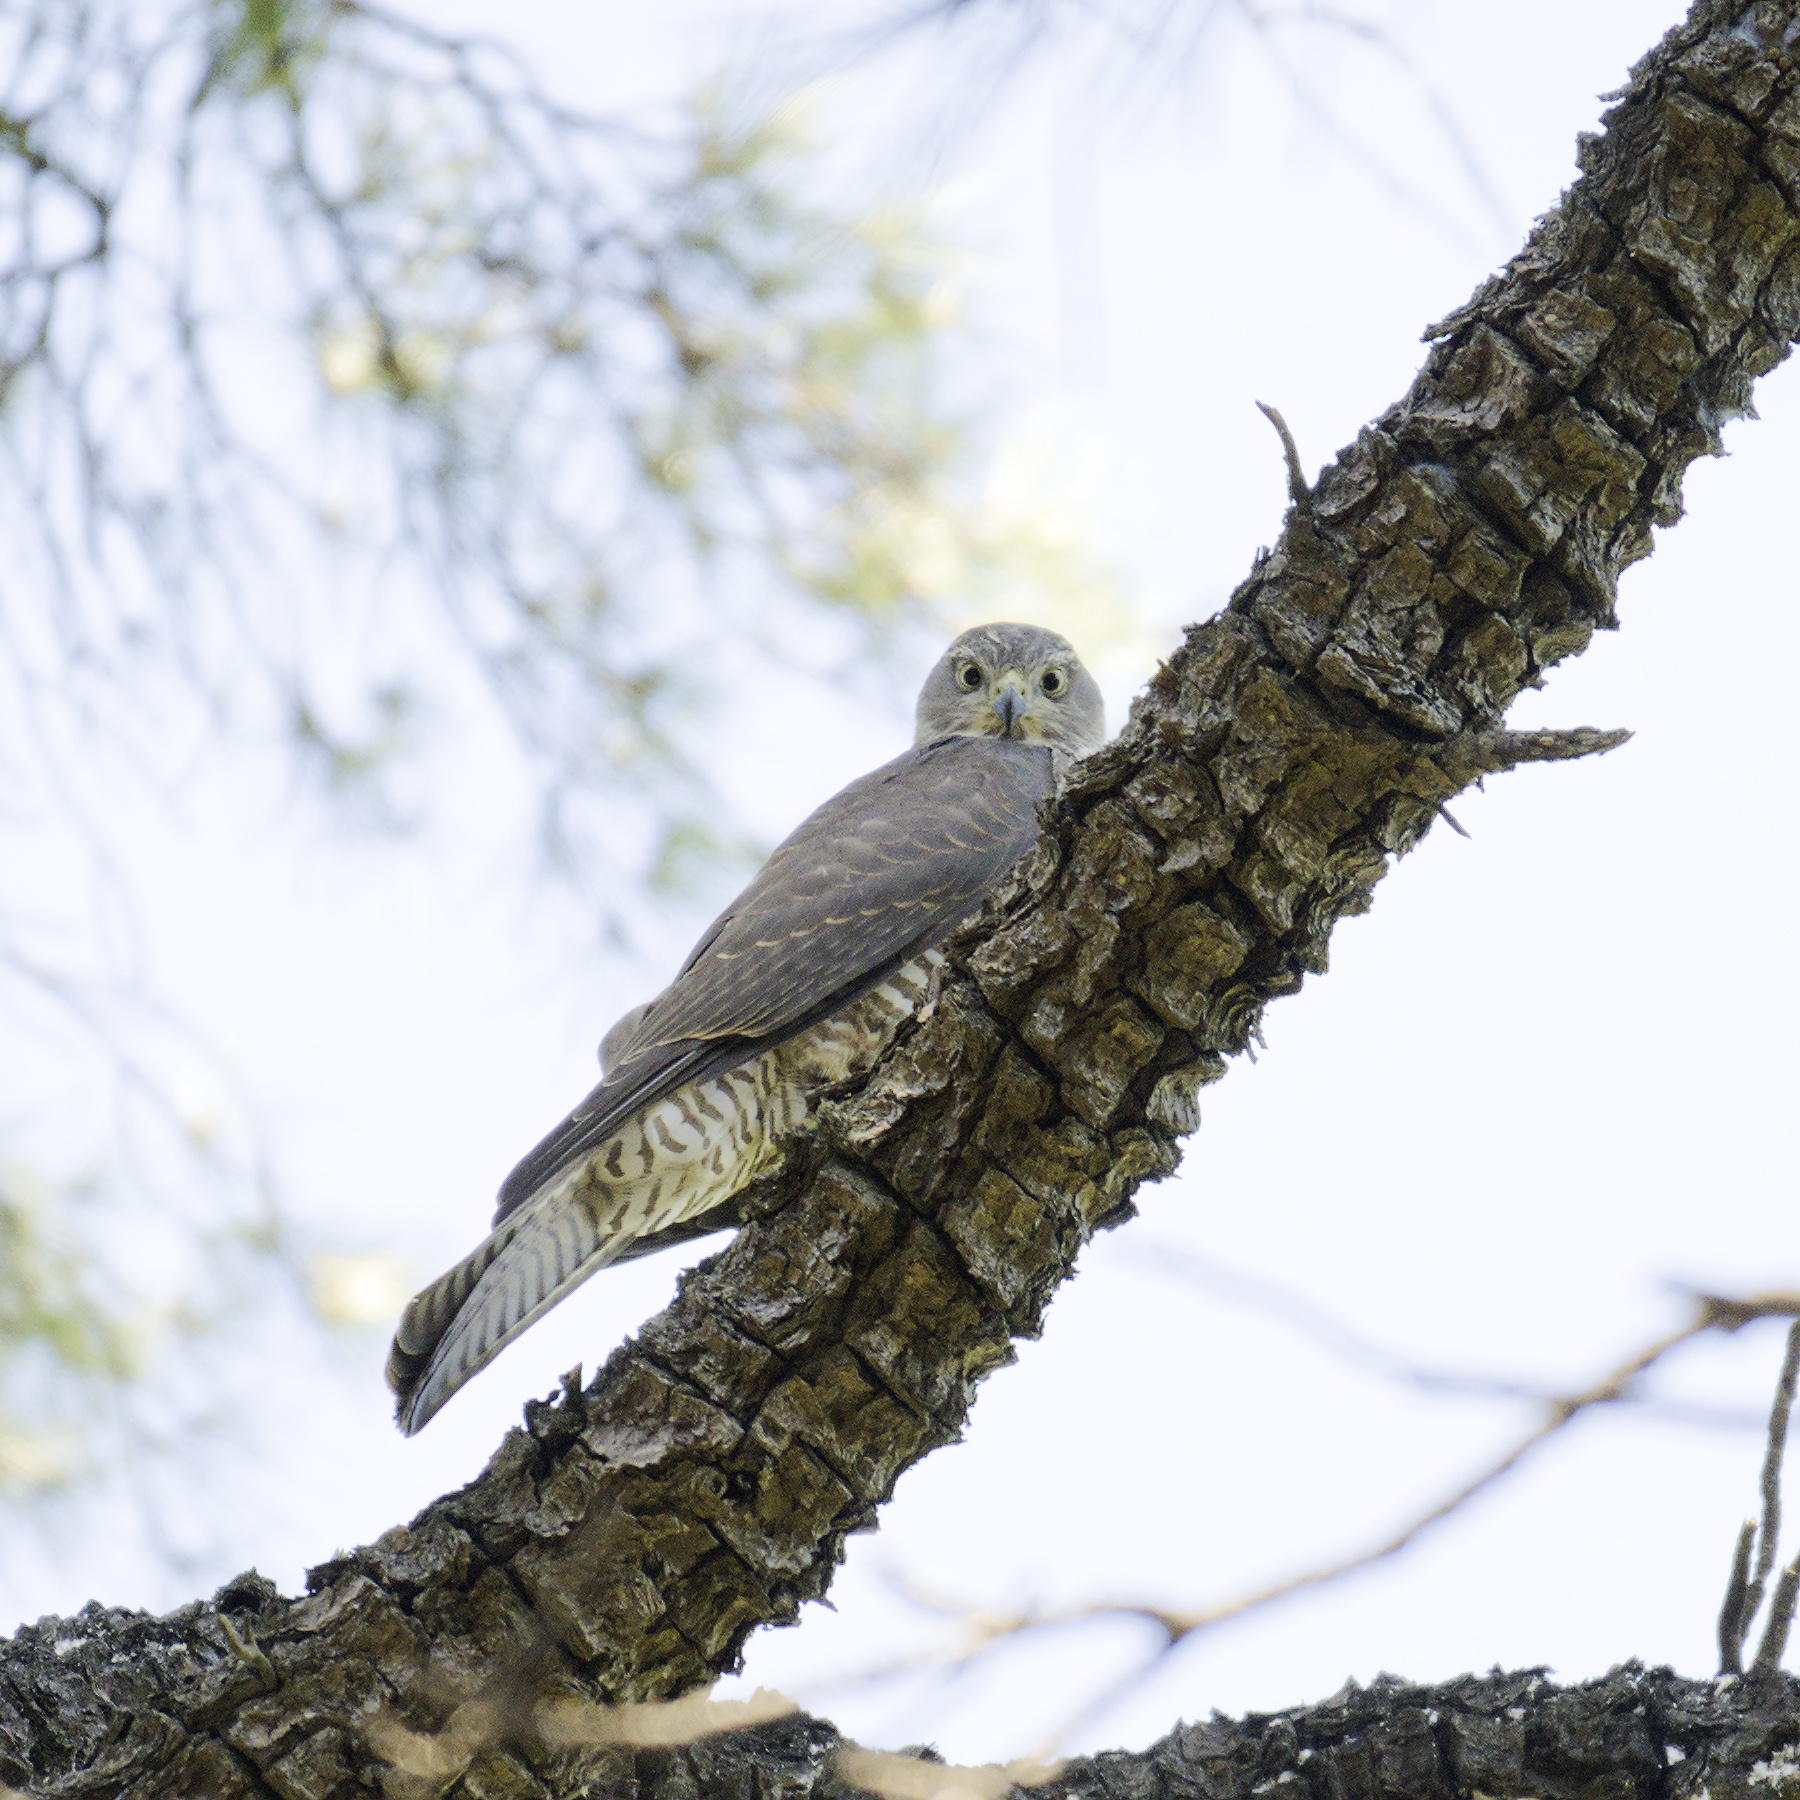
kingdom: Animalia
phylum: Chordata
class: Aves
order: Accipitriformes
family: Accipitridae
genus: Accipiter
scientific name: Accipiter cirrocephalus
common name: Collared sparrowhawk
